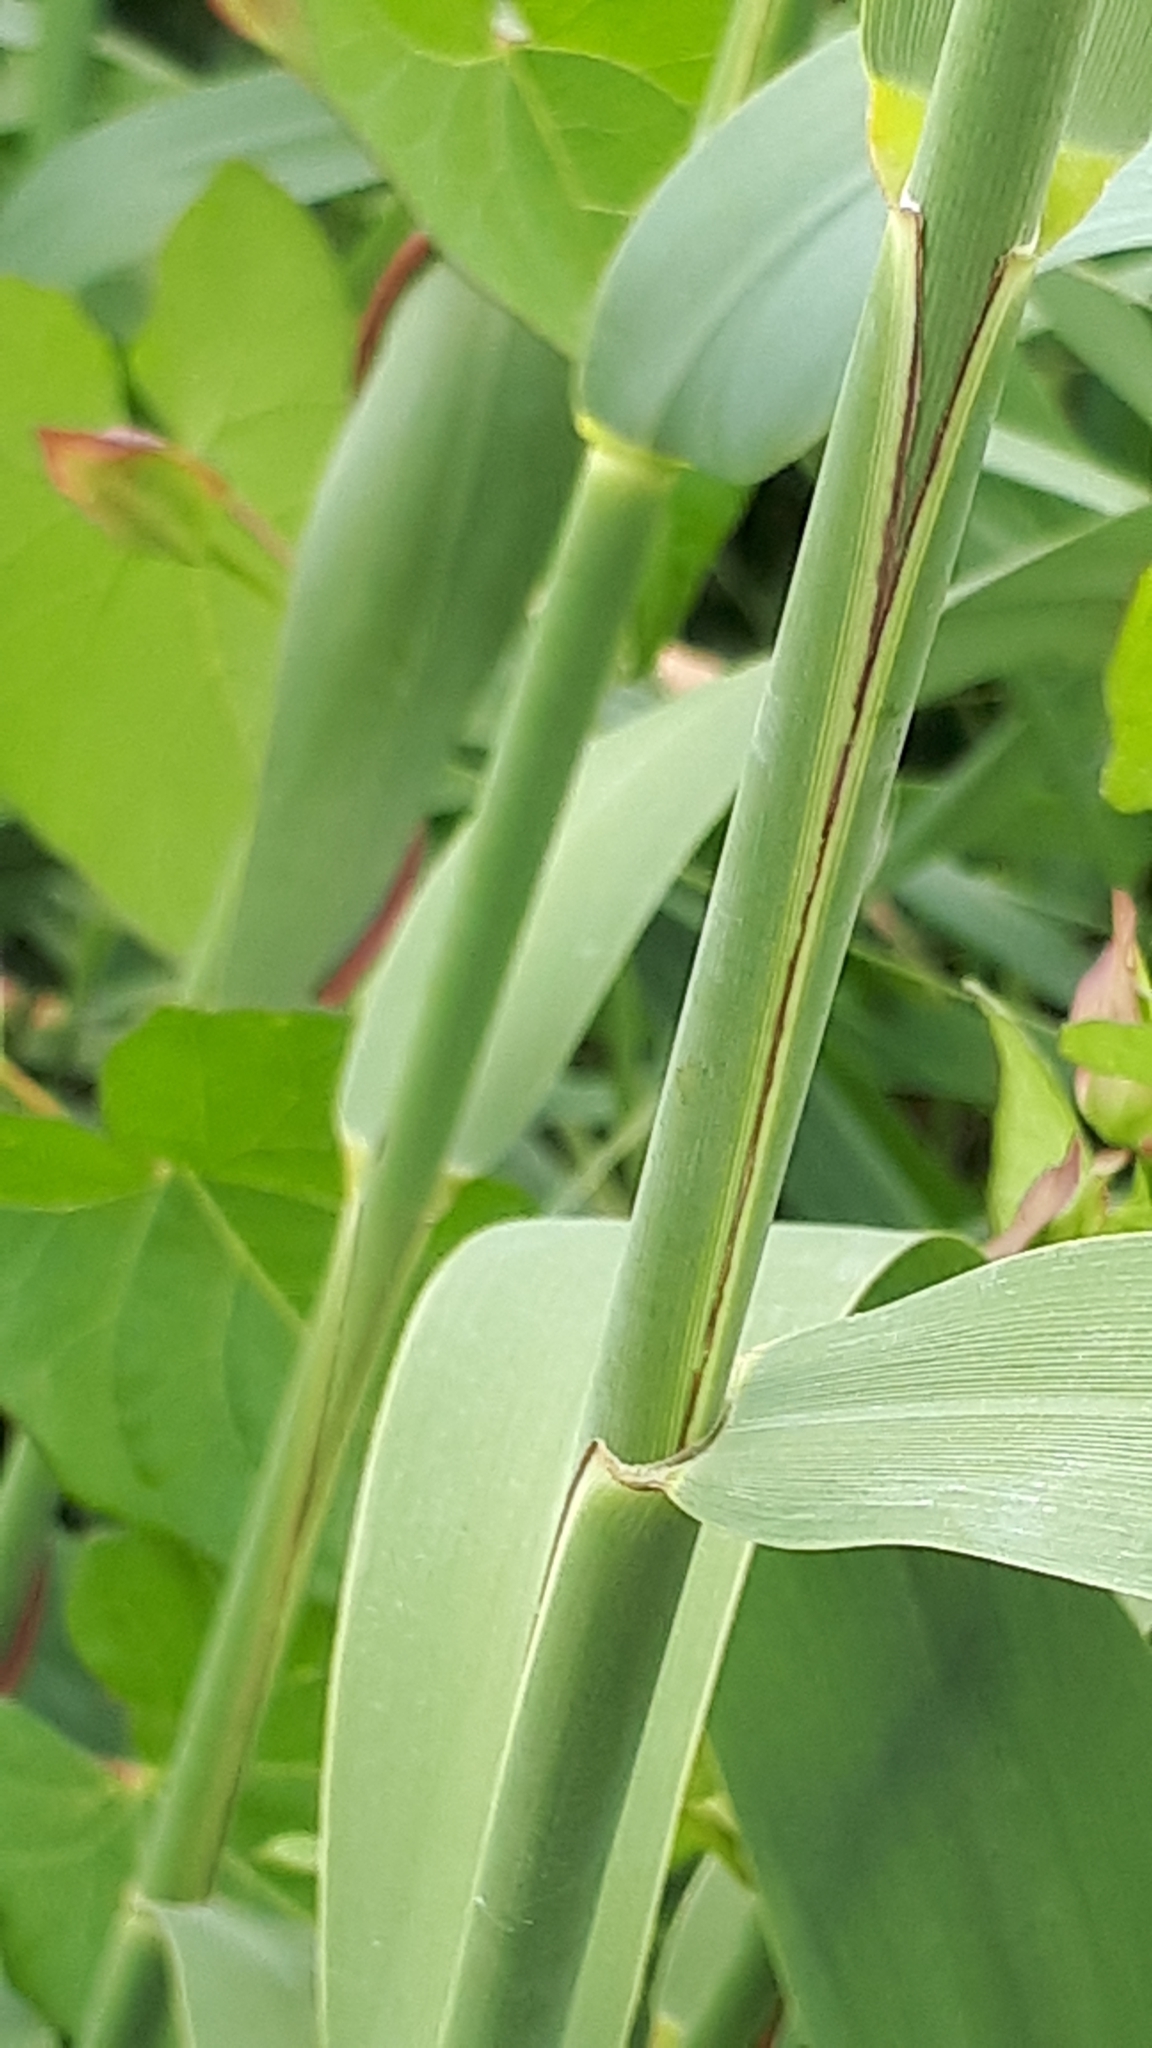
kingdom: Plantae
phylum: Tracheophyta
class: Liliopsida
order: Poales
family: Poaceae
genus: Phragmites
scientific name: Phragmites australis
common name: Common reed
